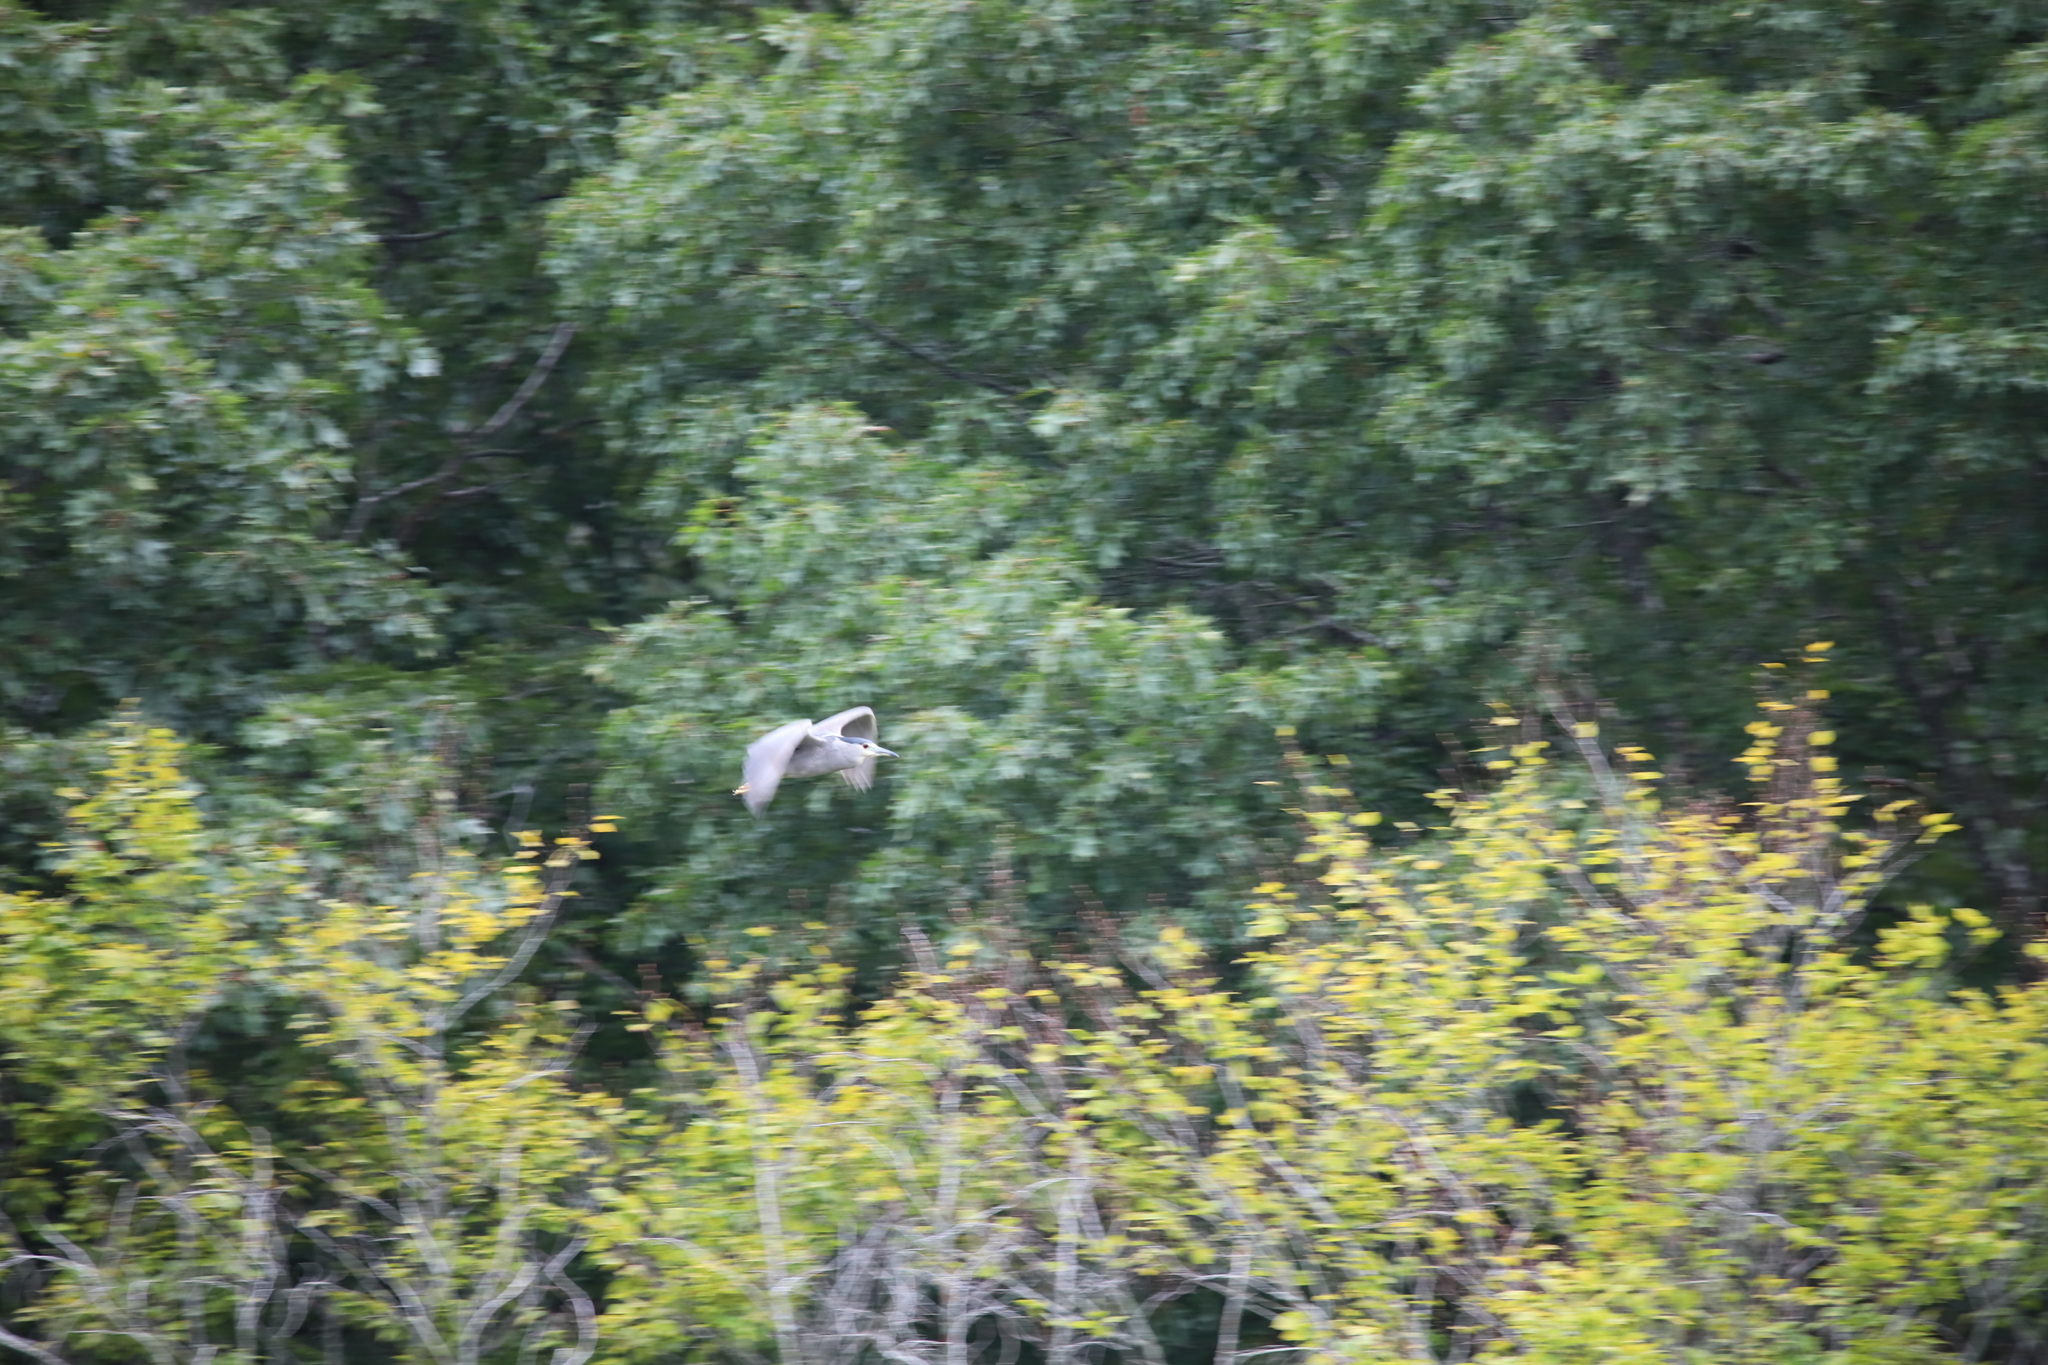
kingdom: Animalia
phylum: Chordata
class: Aves
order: Pelecaniformes
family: Ardeidae
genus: Nycticorax
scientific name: Nycticorax nycticorax
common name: Black-crowned night heron
